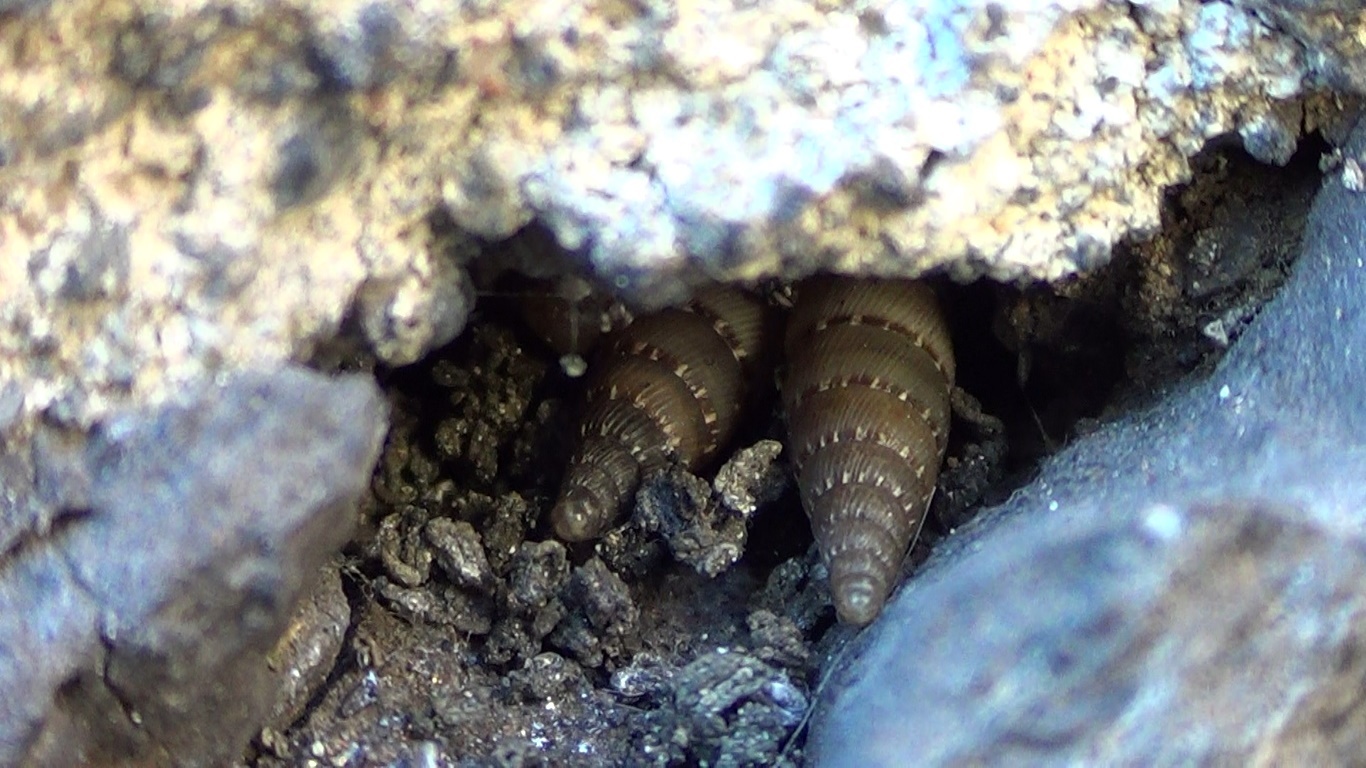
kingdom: Animalia
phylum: Mollusca
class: Gastropoda
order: Stylommatophora
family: Clausiliidae
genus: Papillifera
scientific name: Papillifera papillaris
